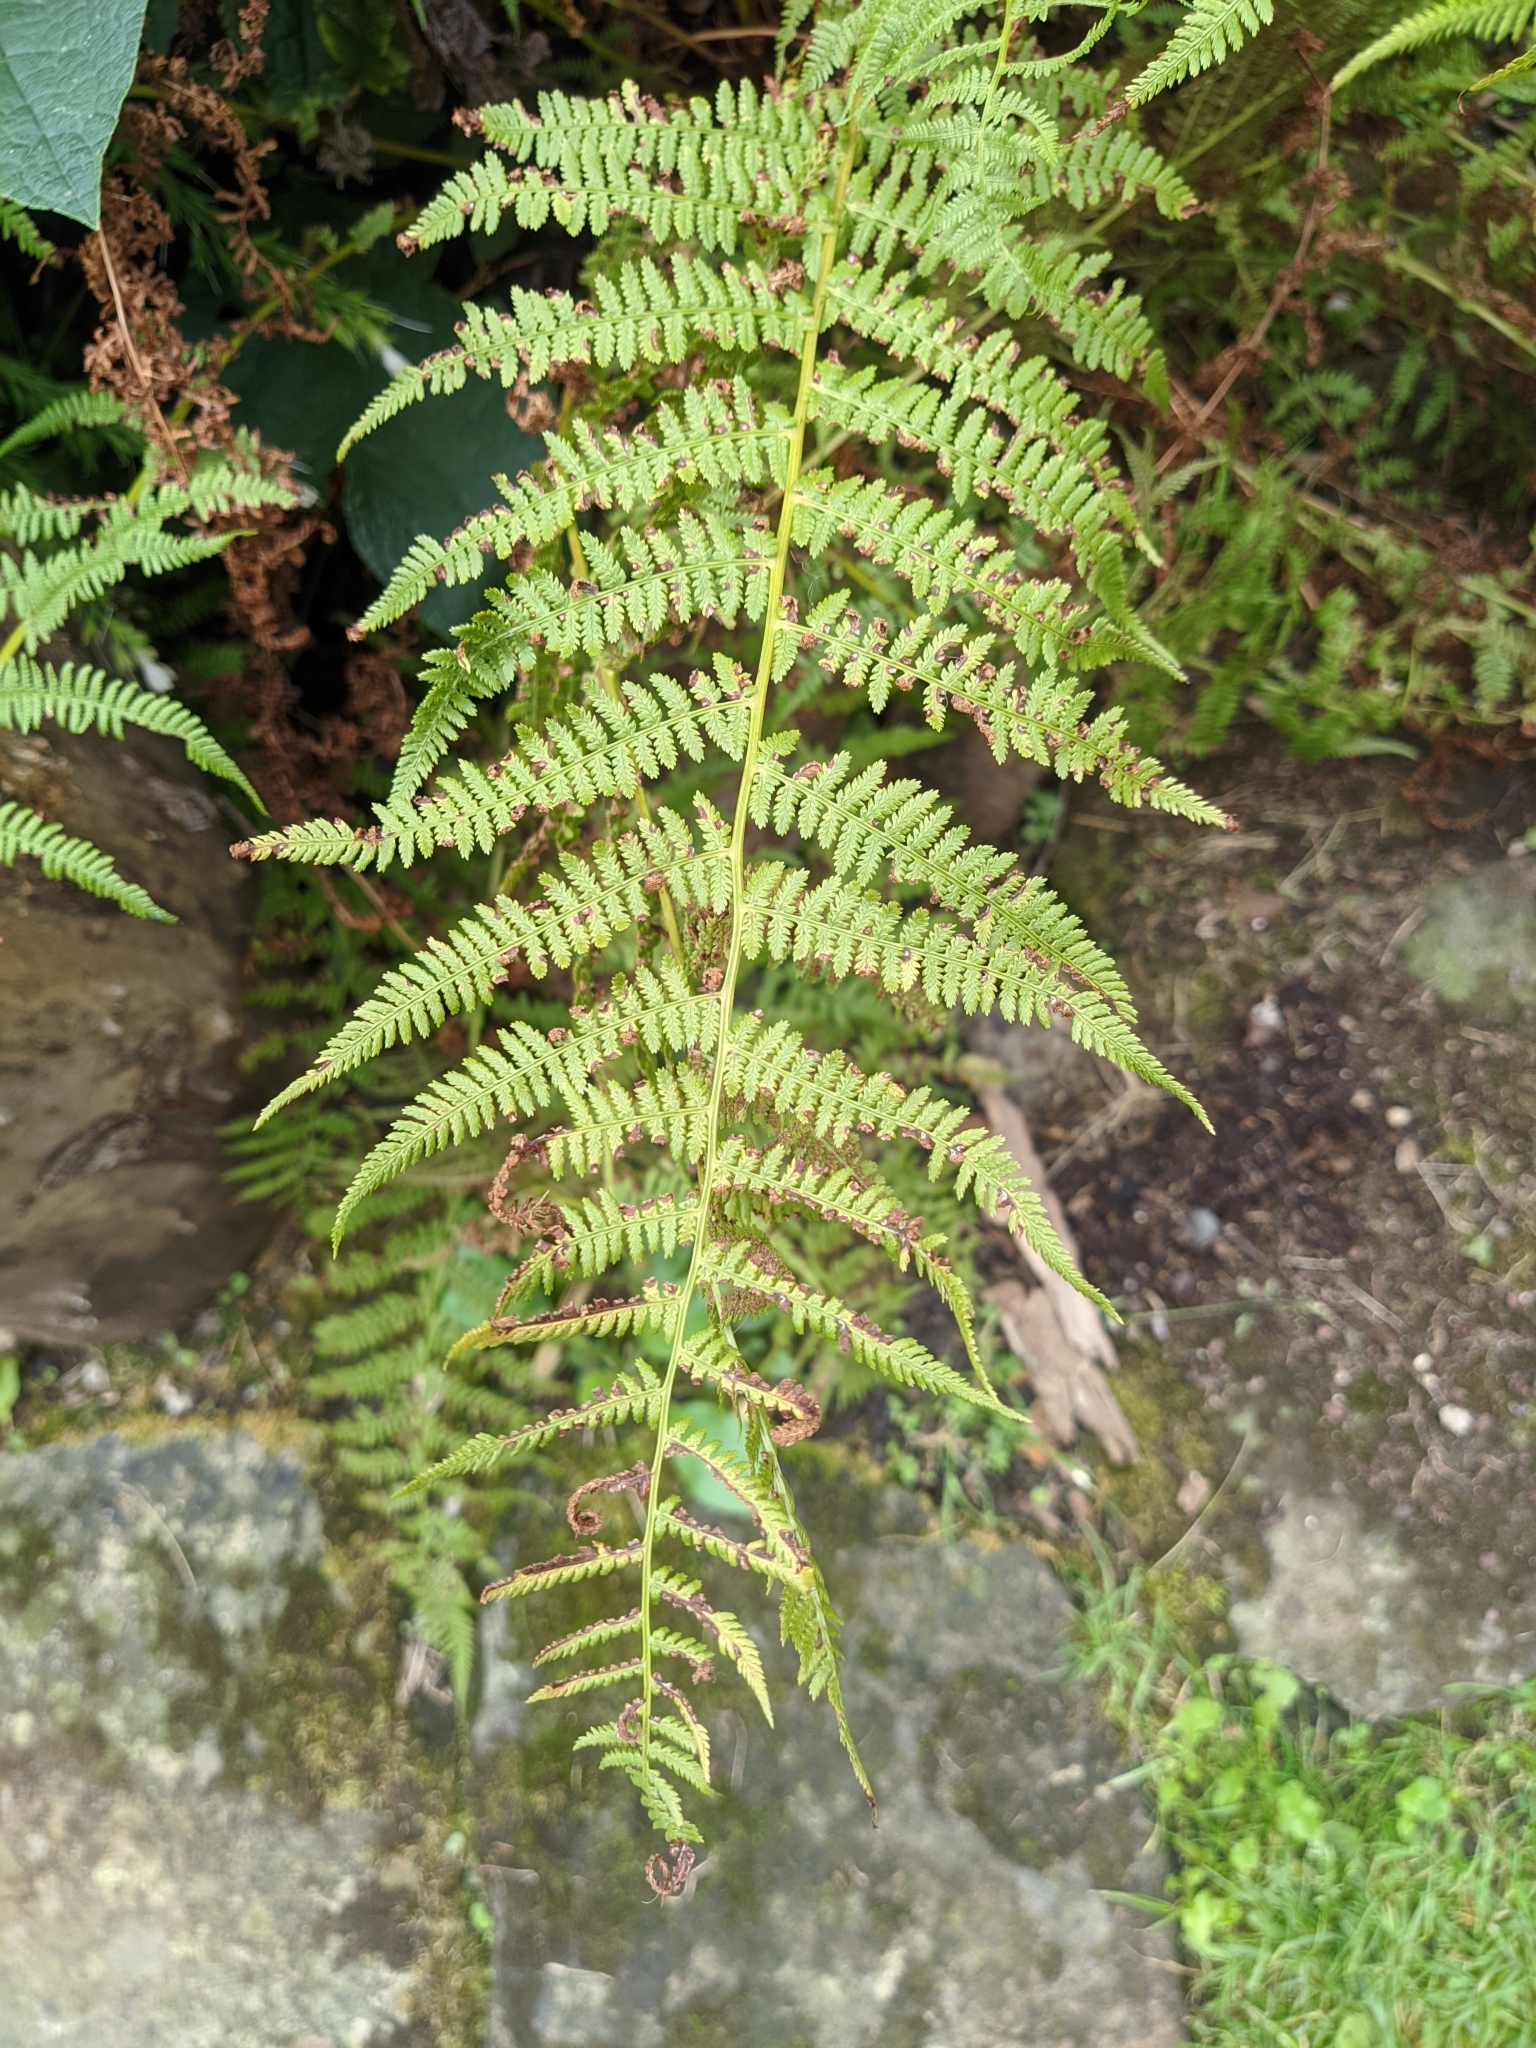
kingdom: Plantae
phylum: Tracheophyta
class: Polypodiopsida
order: Polypodiales
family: Athyriaceae
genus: Athyrium
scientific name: Athyrium filix-femina
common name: Lady fern
